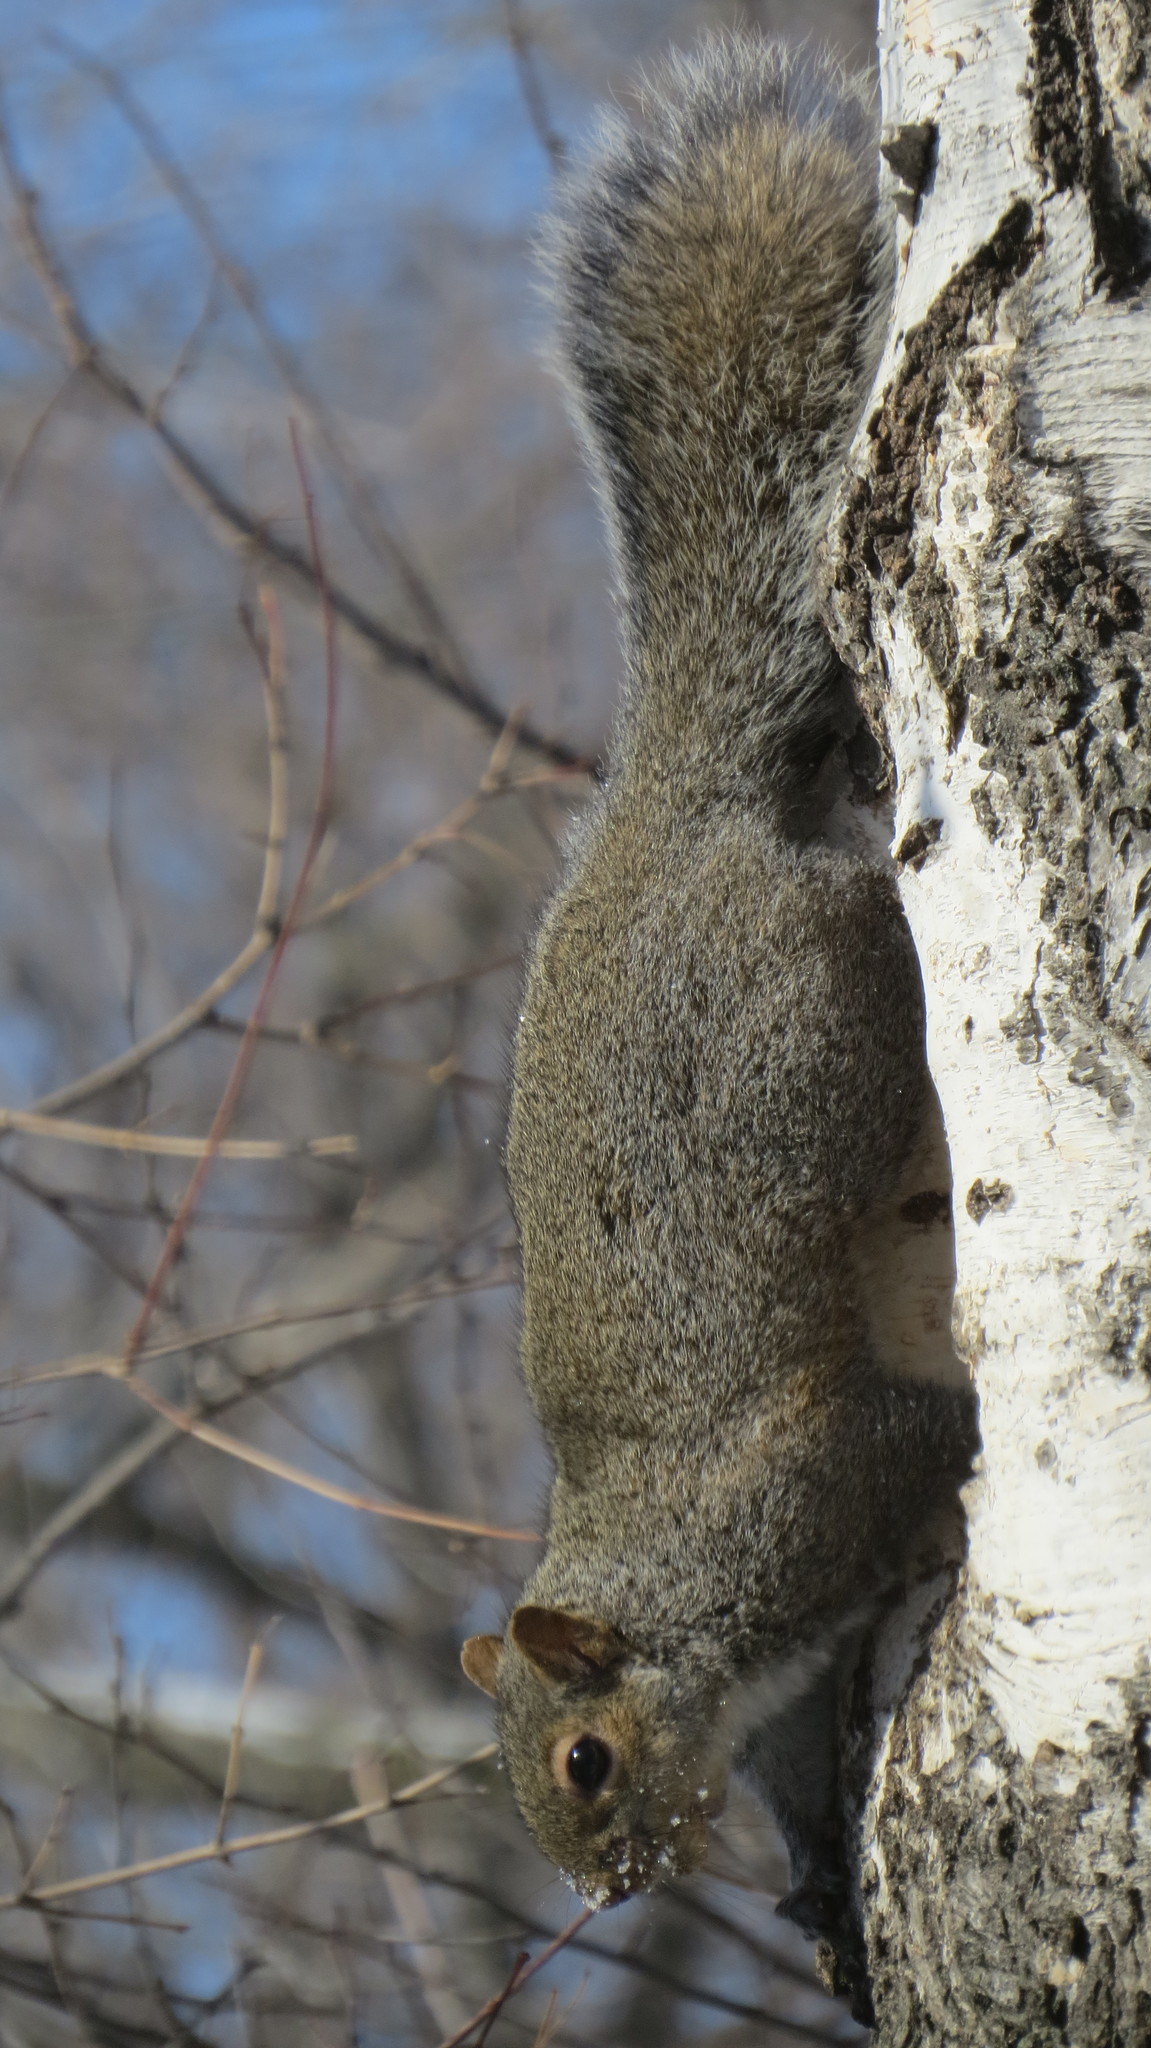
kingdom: Animalia
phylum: Chordata
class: Mammalia
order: Rodentia
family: Sciuridae
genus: Sciurus
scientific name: Sciurus carolinensis
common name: Eastern gray squirrel
